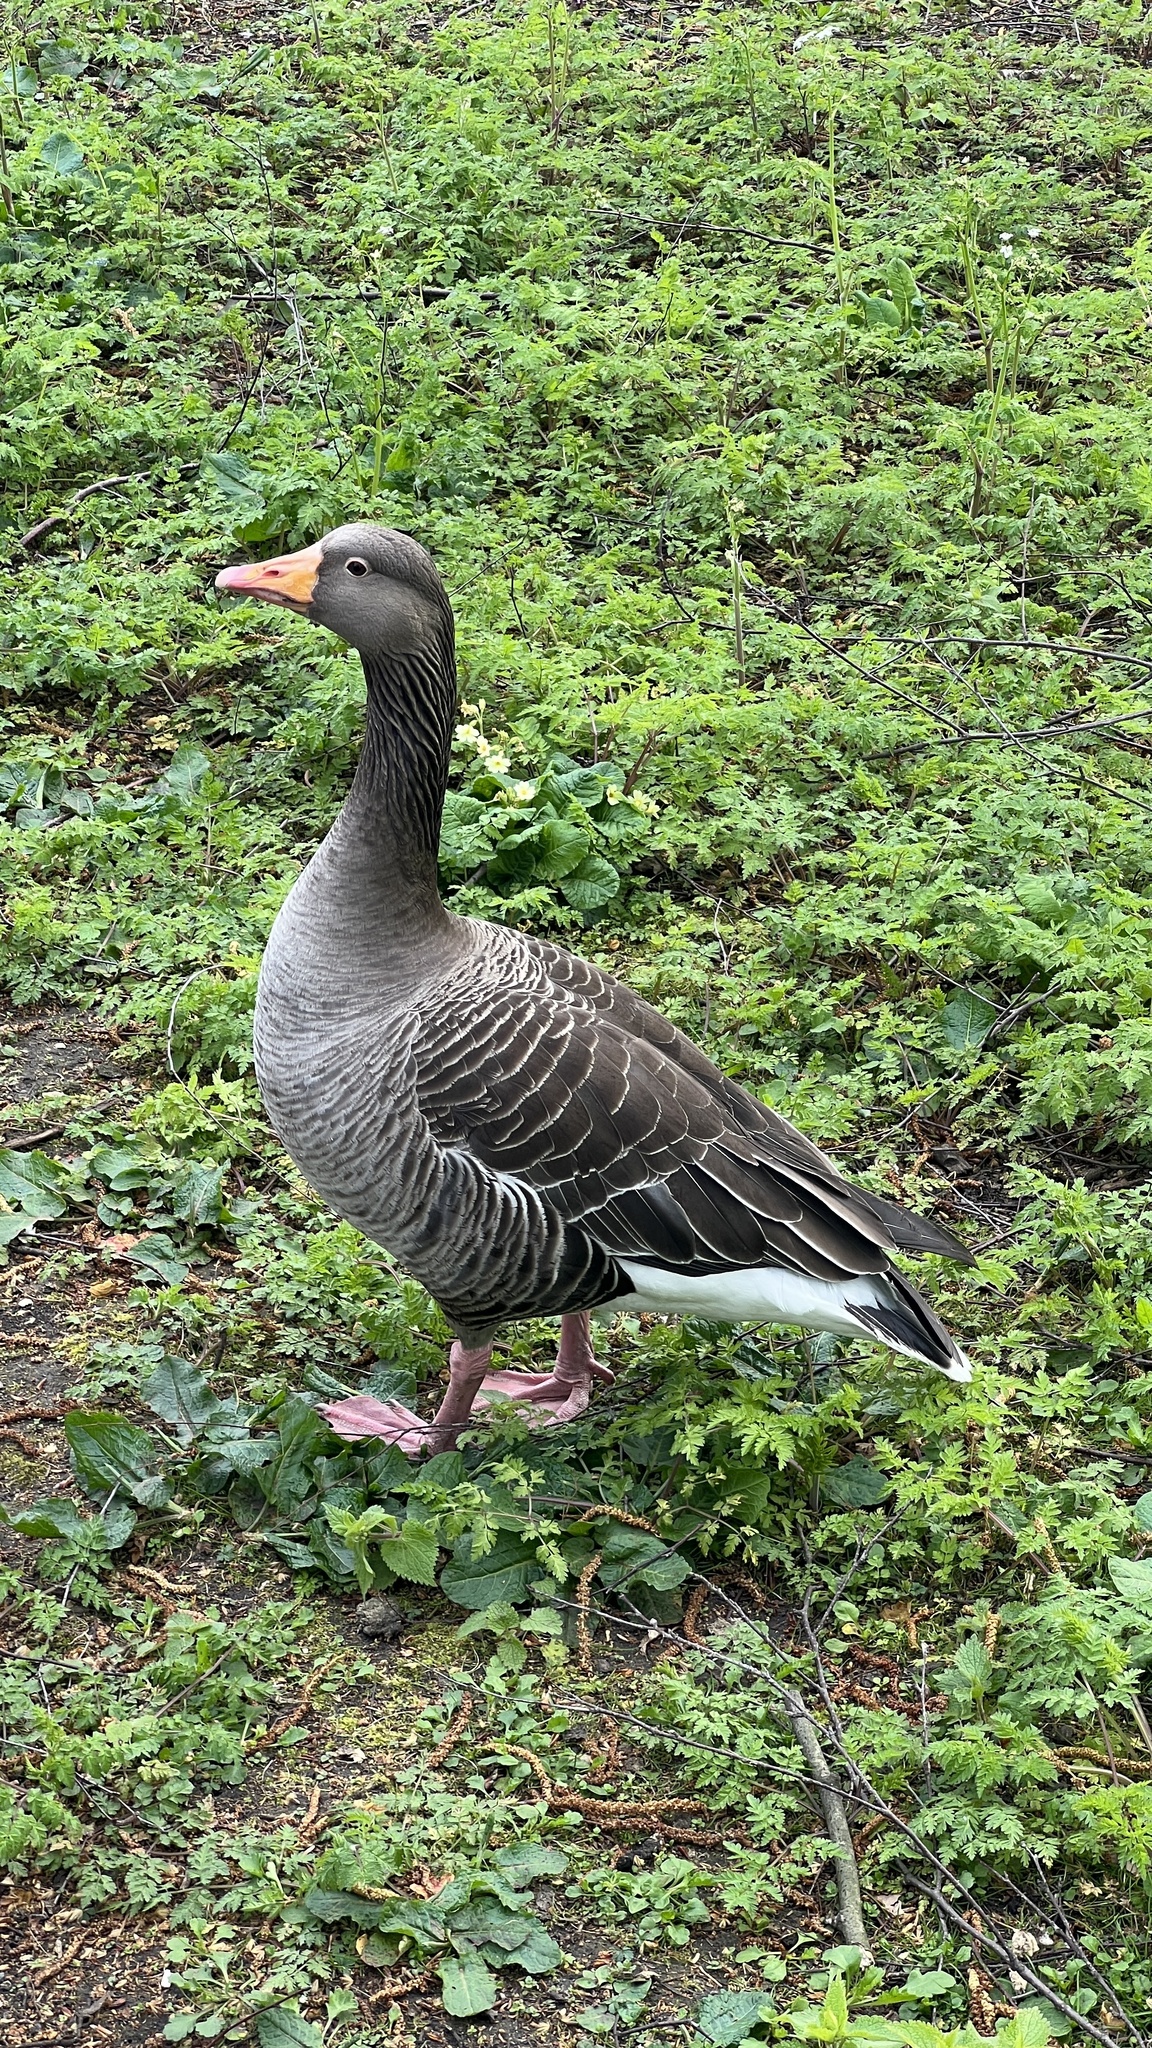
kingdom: Animalia
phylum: Chordata
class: Aves
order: Anseriformes
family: Anatidae
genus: Anser
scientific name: Anser anser
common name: Greylag goose
